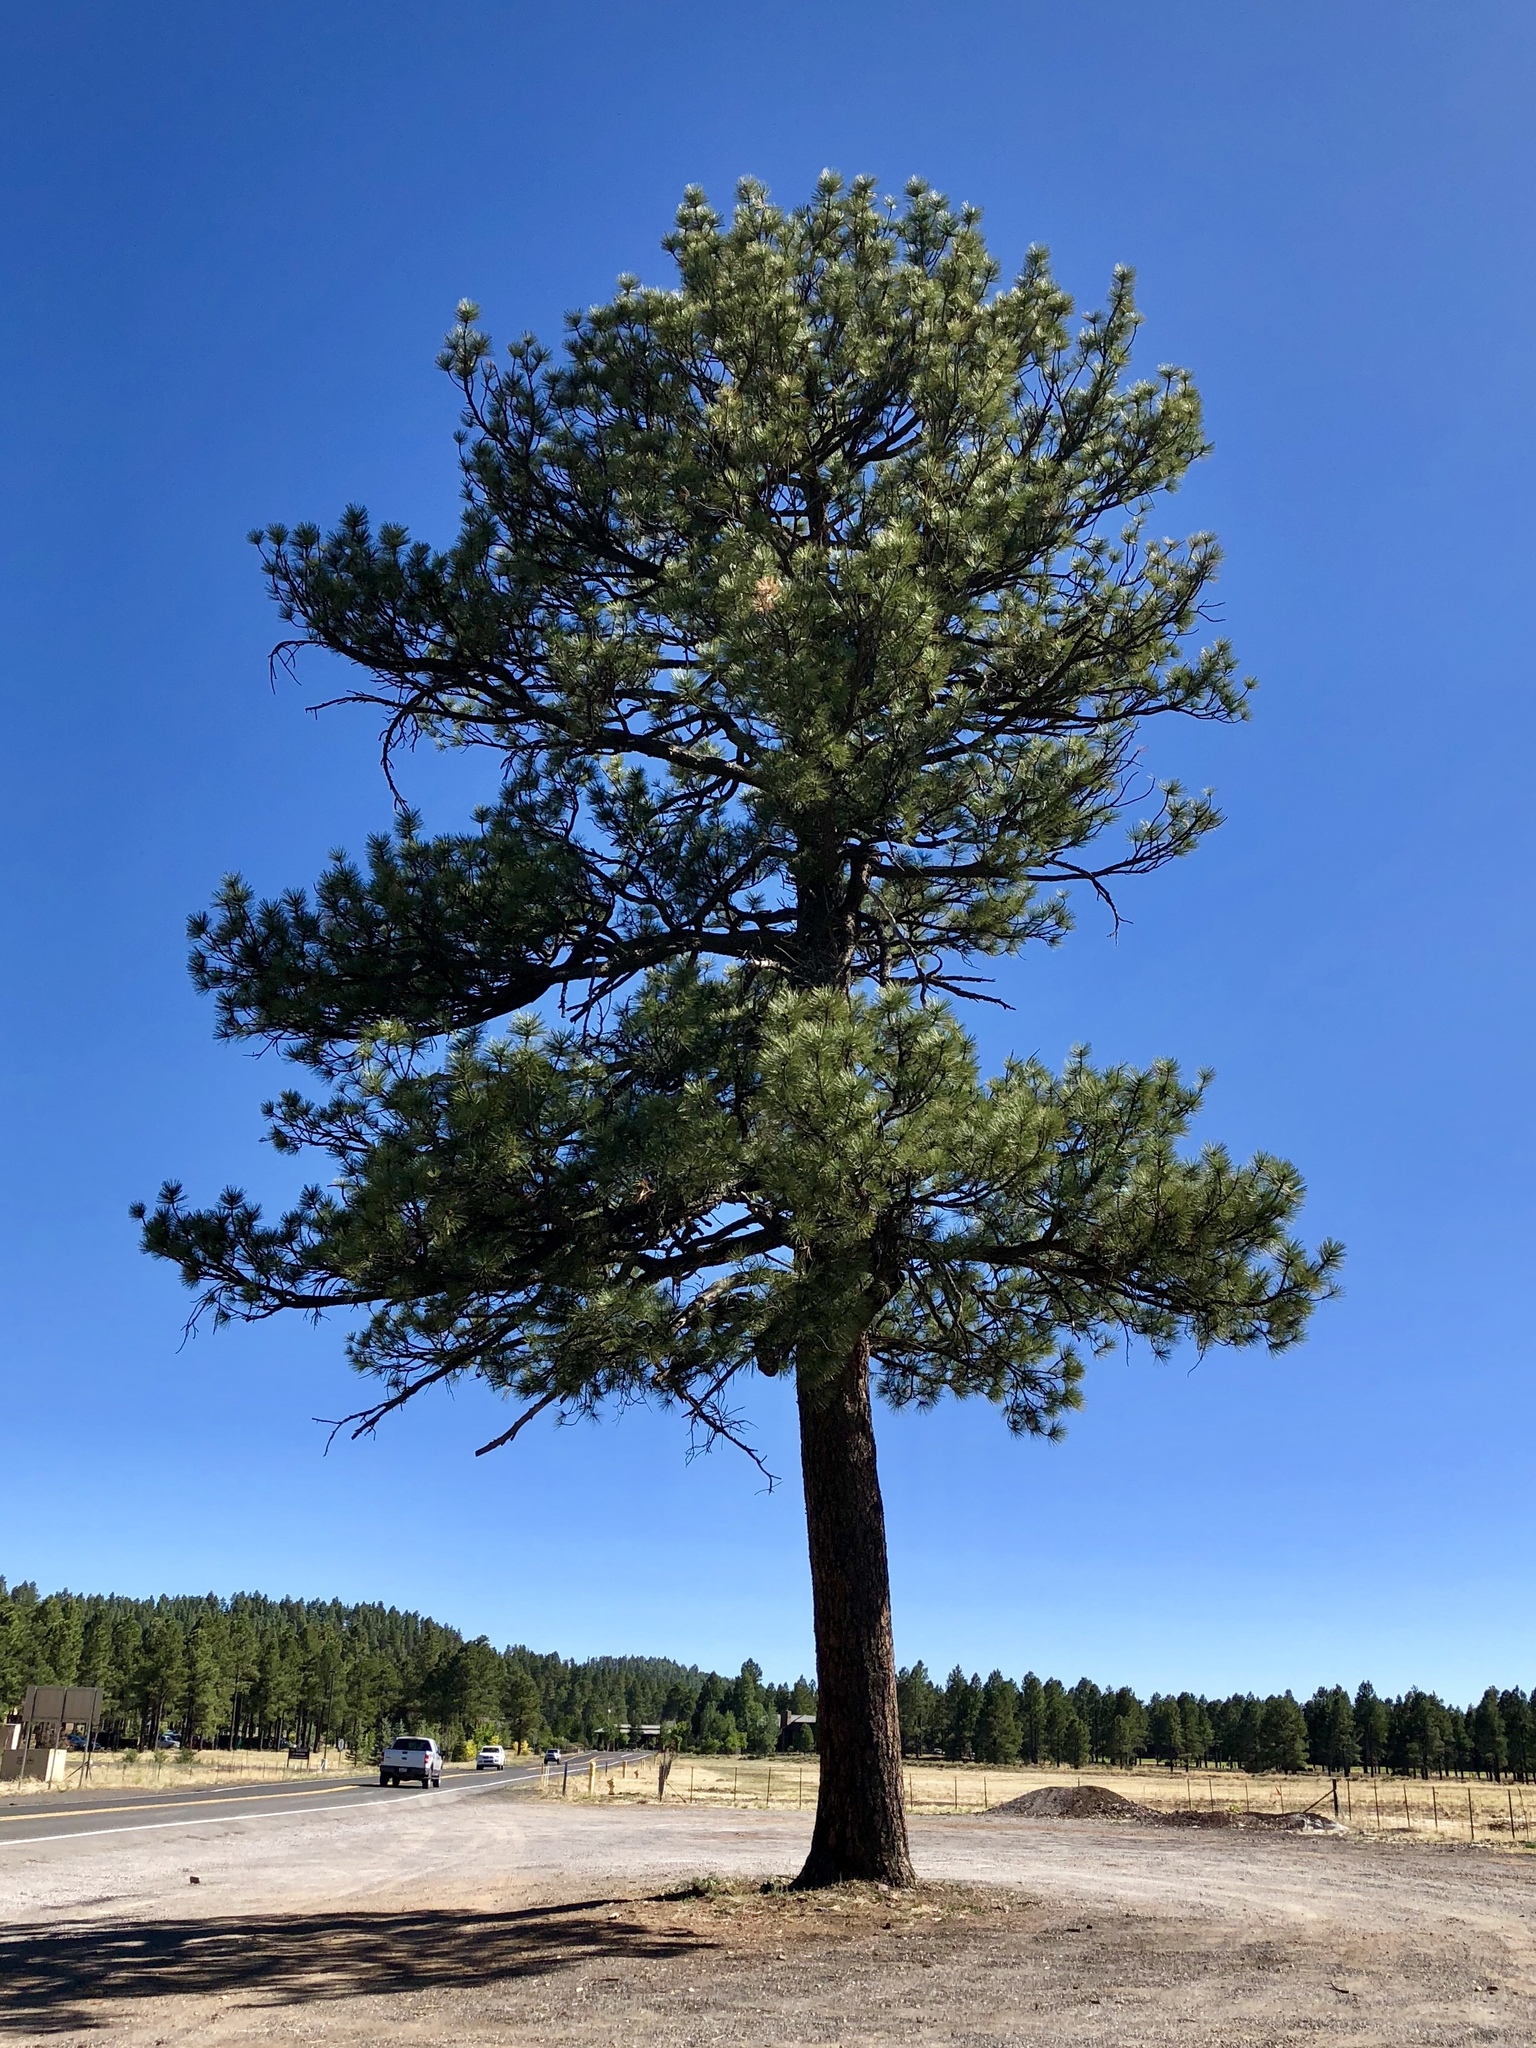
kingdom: Plantae
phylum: Tracheophyta
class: Pinopsida
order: Pinales
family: Pinaceae
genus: Pinus
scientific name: Pinus ponderosa
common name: Western yellow-pine
